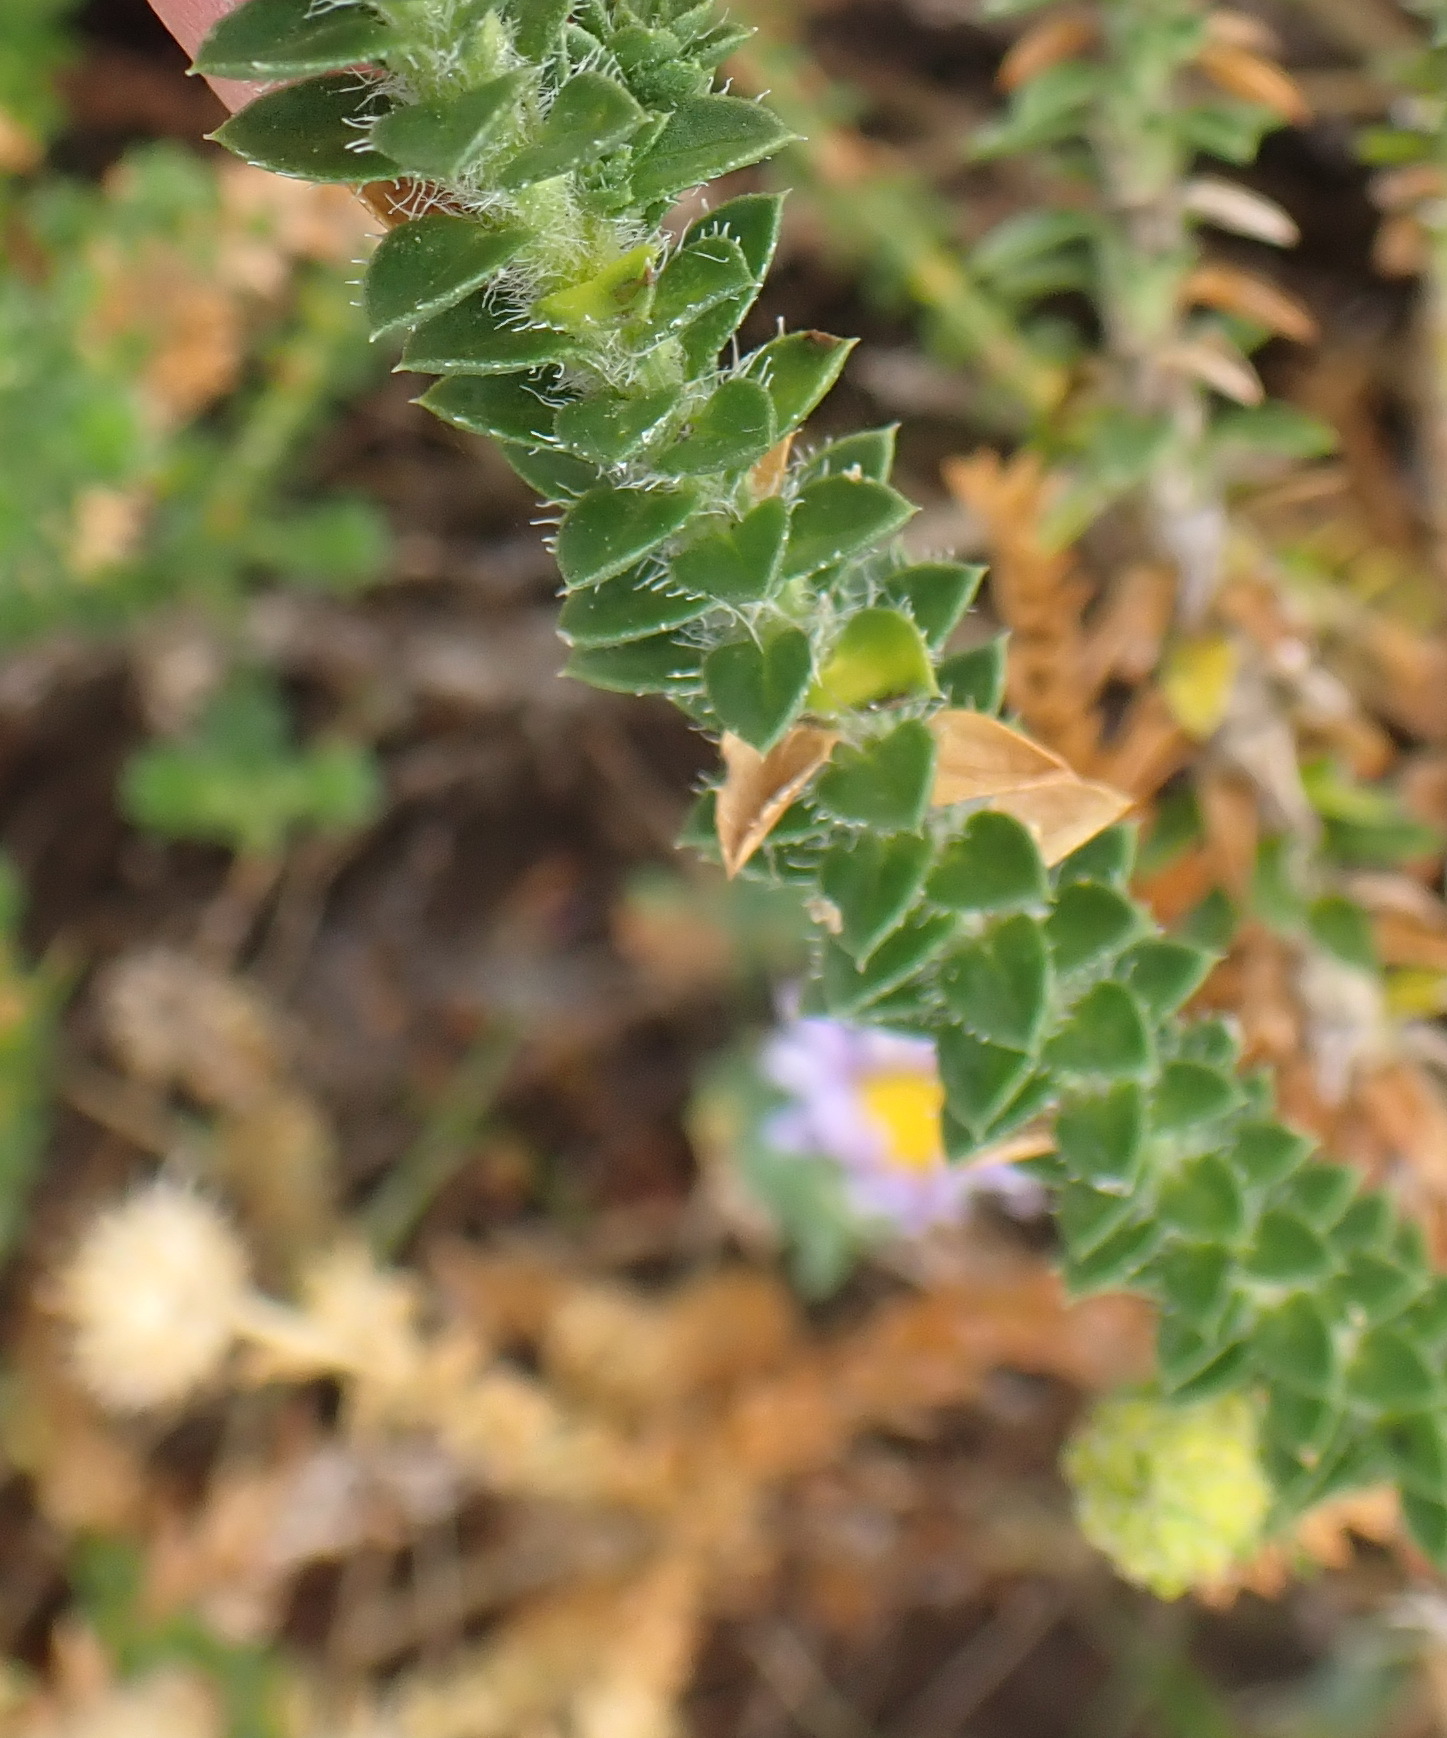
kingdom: Plantae
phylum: Tracheophyta
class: Magnoliopsida
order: Asterales
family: Asteraceae
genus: Felicia
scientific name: Felicia echinata
